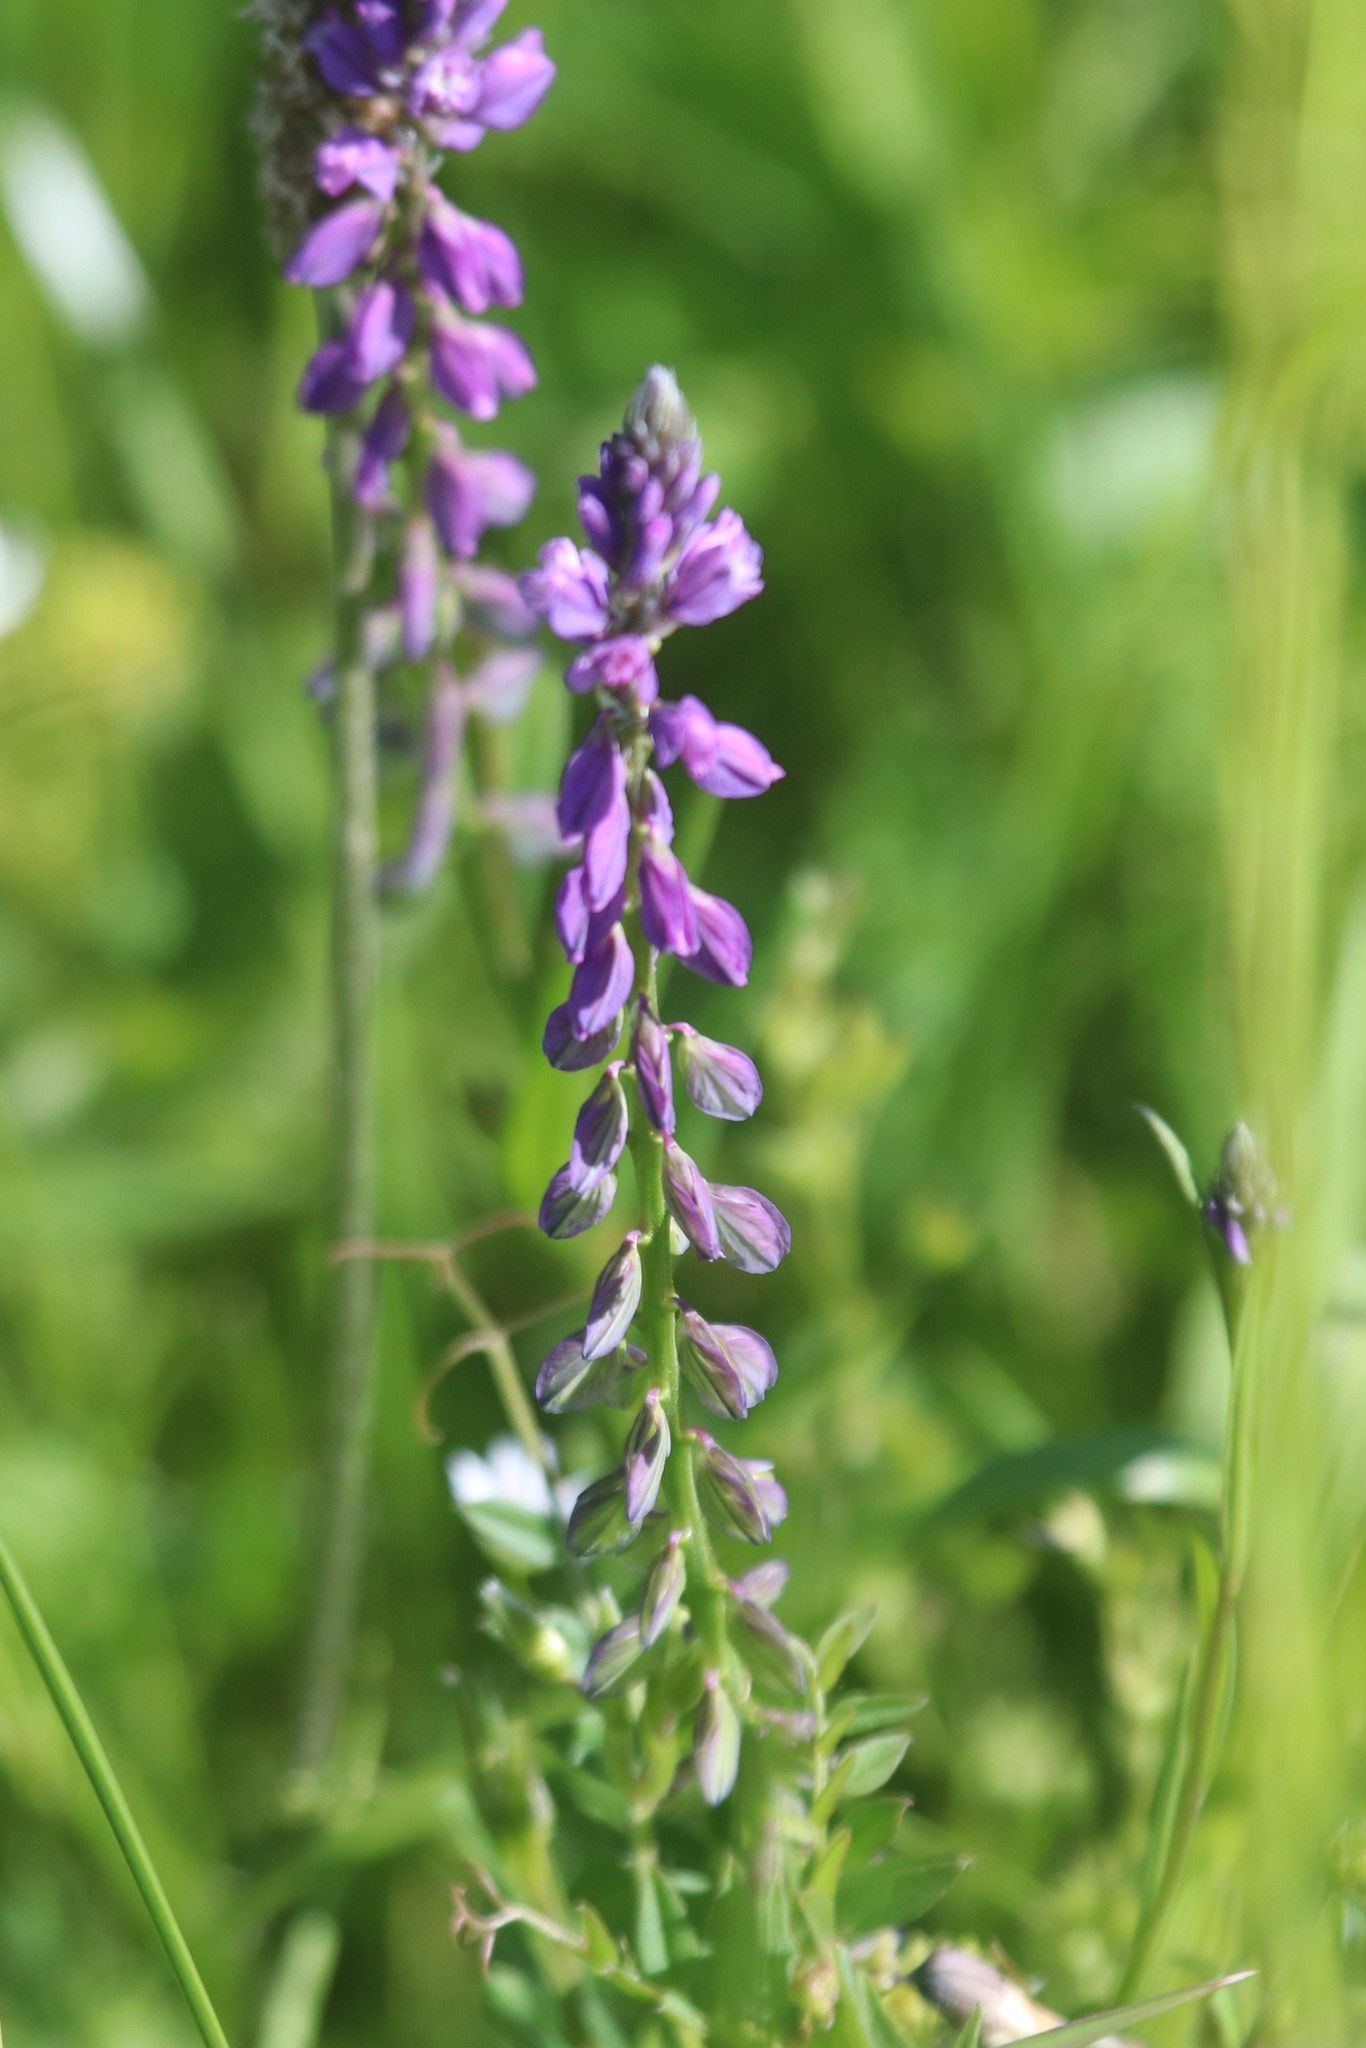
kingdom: Plantae
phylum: Tracheophyta
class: Magnoliopsida
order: Fabales
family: Polygalaceae
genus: Polygala
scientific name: Polygala comosa
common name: Tufted milkwort
